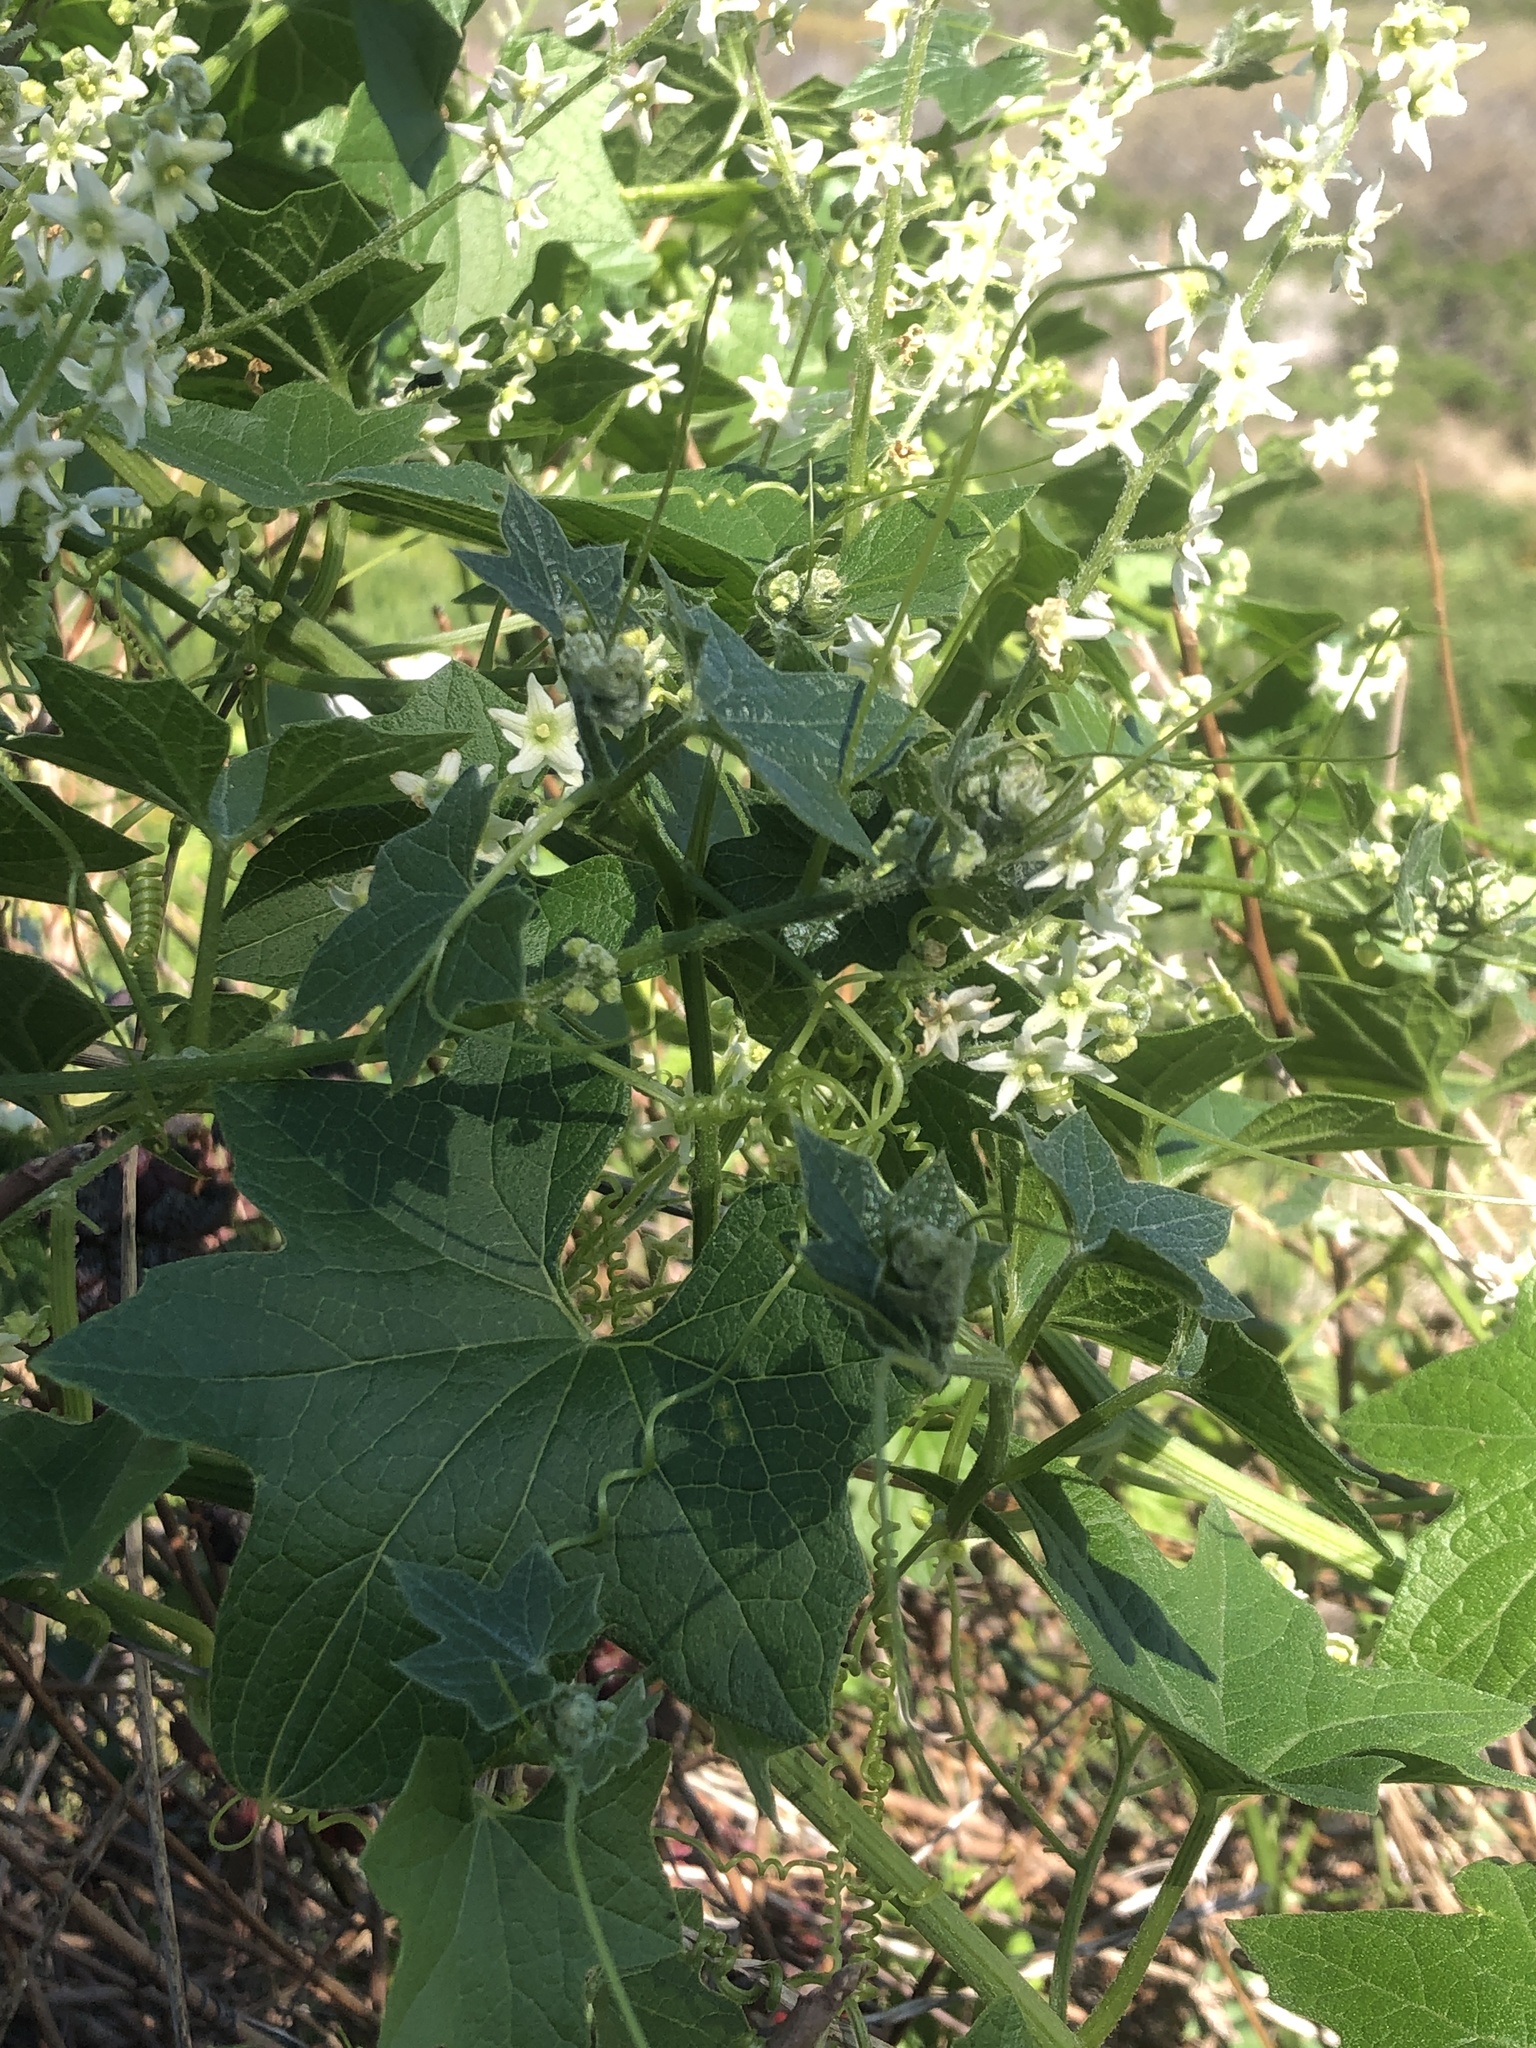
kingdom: Plantae
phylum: Tracheophyta
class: Magnoliopsida
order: Cucurbitales
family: Cucurbitaceae
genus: Marah
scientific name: Marah fabacea
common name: California manroot
